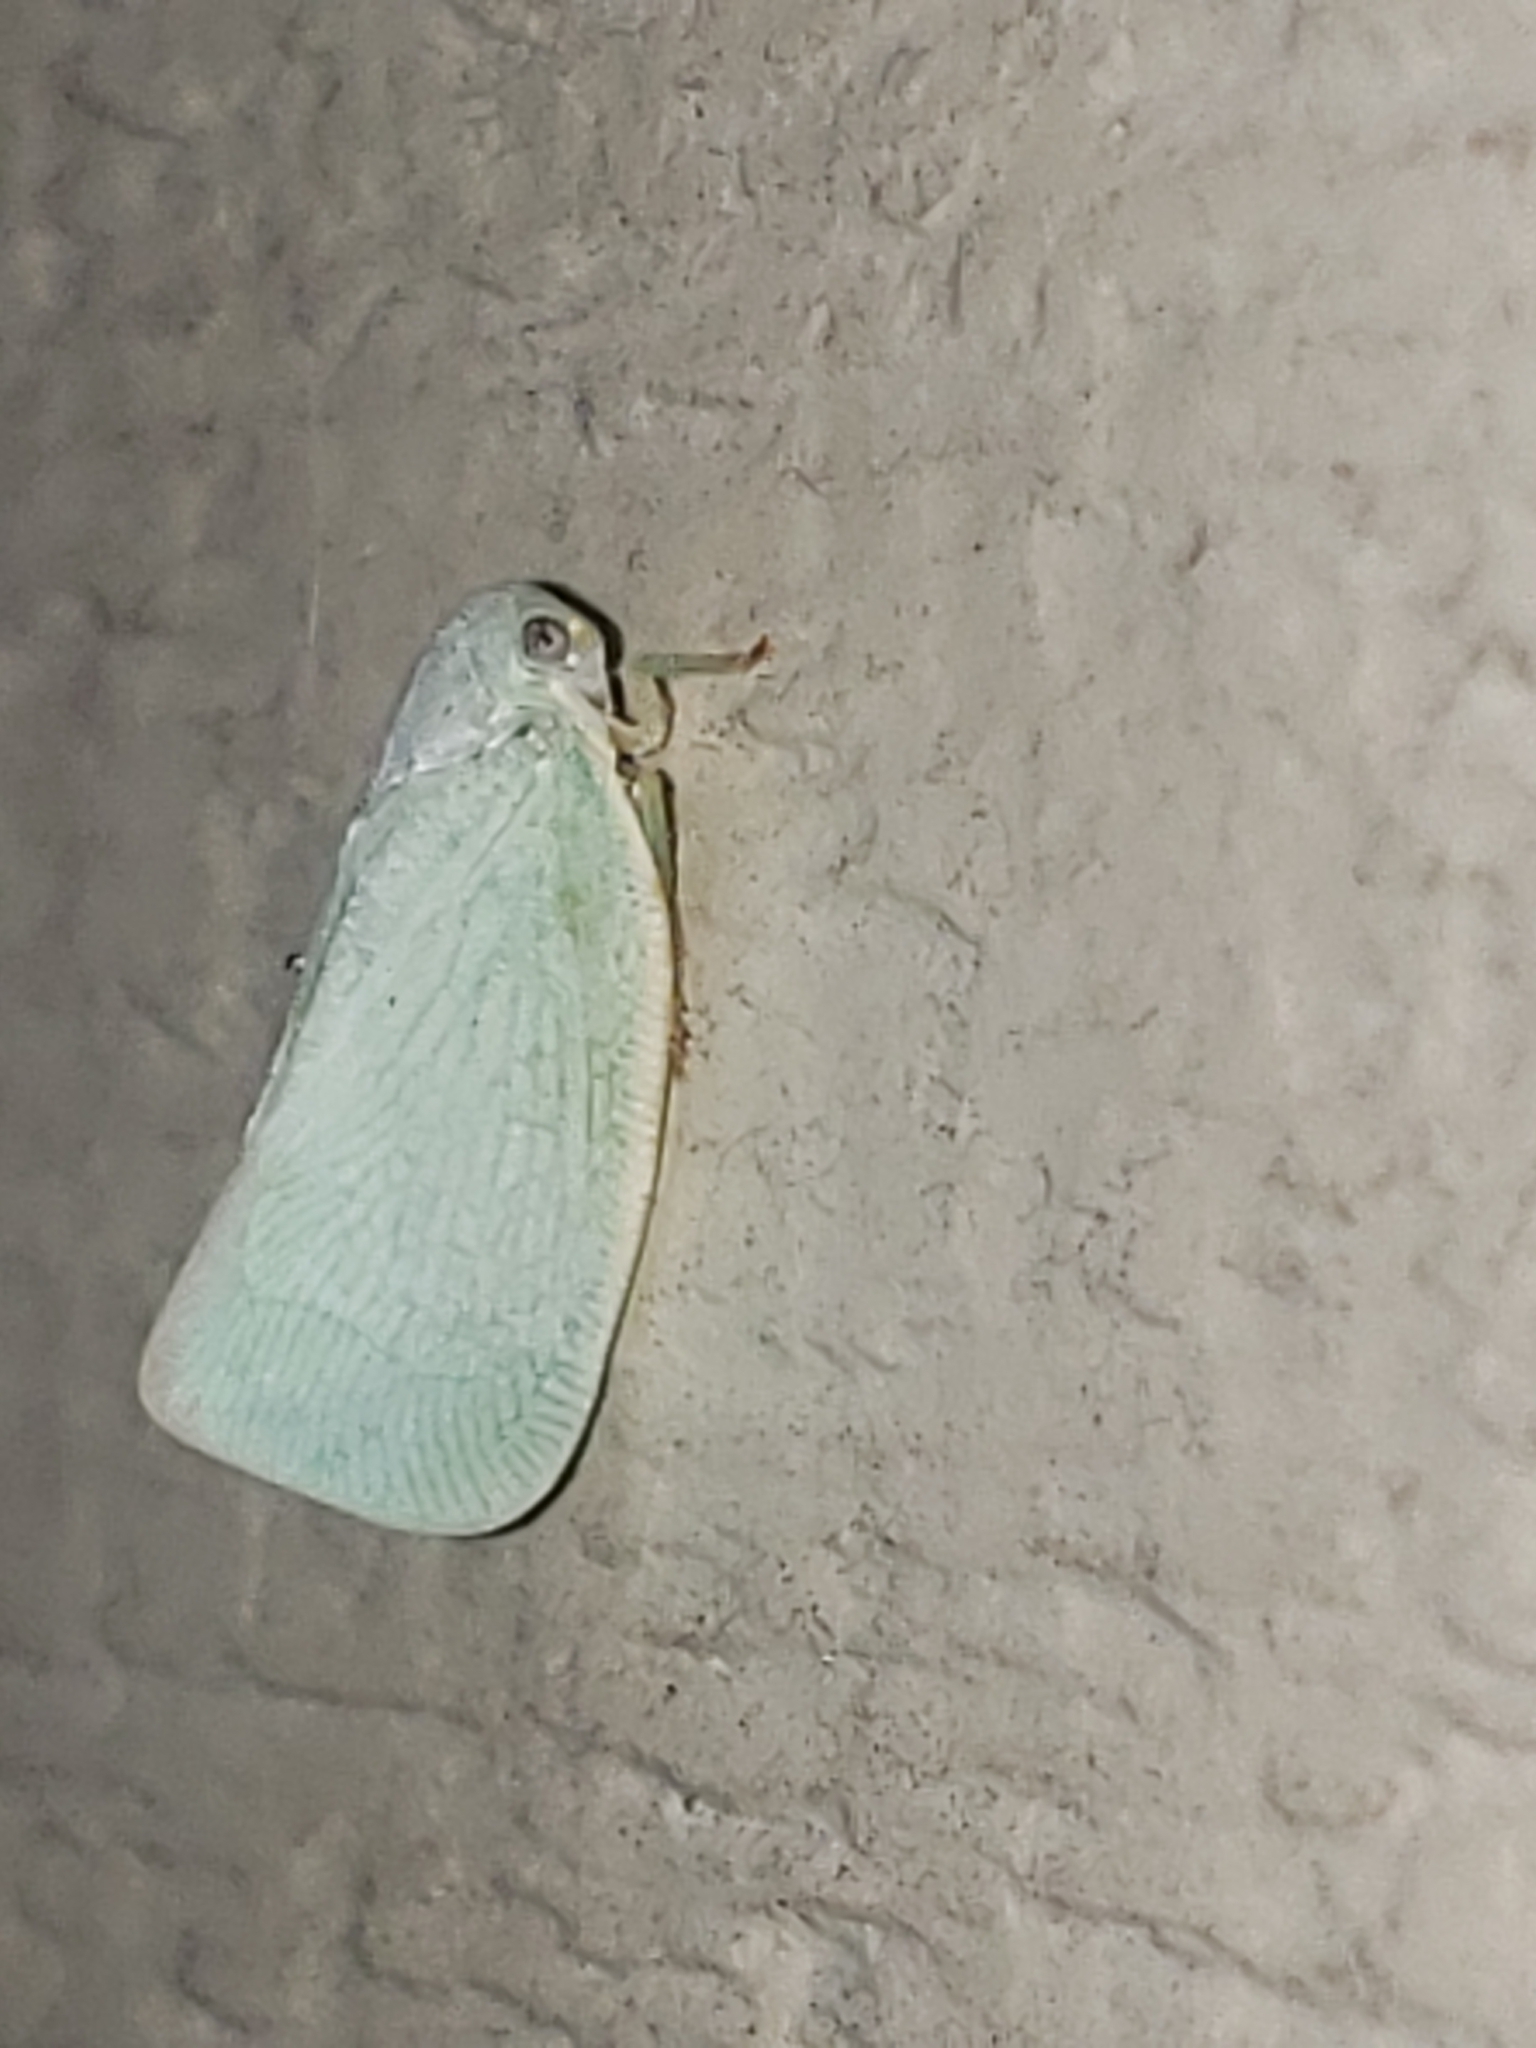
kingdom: Animalia
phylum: Arthropoda
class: Insecta
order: Hemiptera
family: Flatidae
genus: Flatormenis
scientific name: Flatormenis proxima
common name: Northern flatid planthopper
